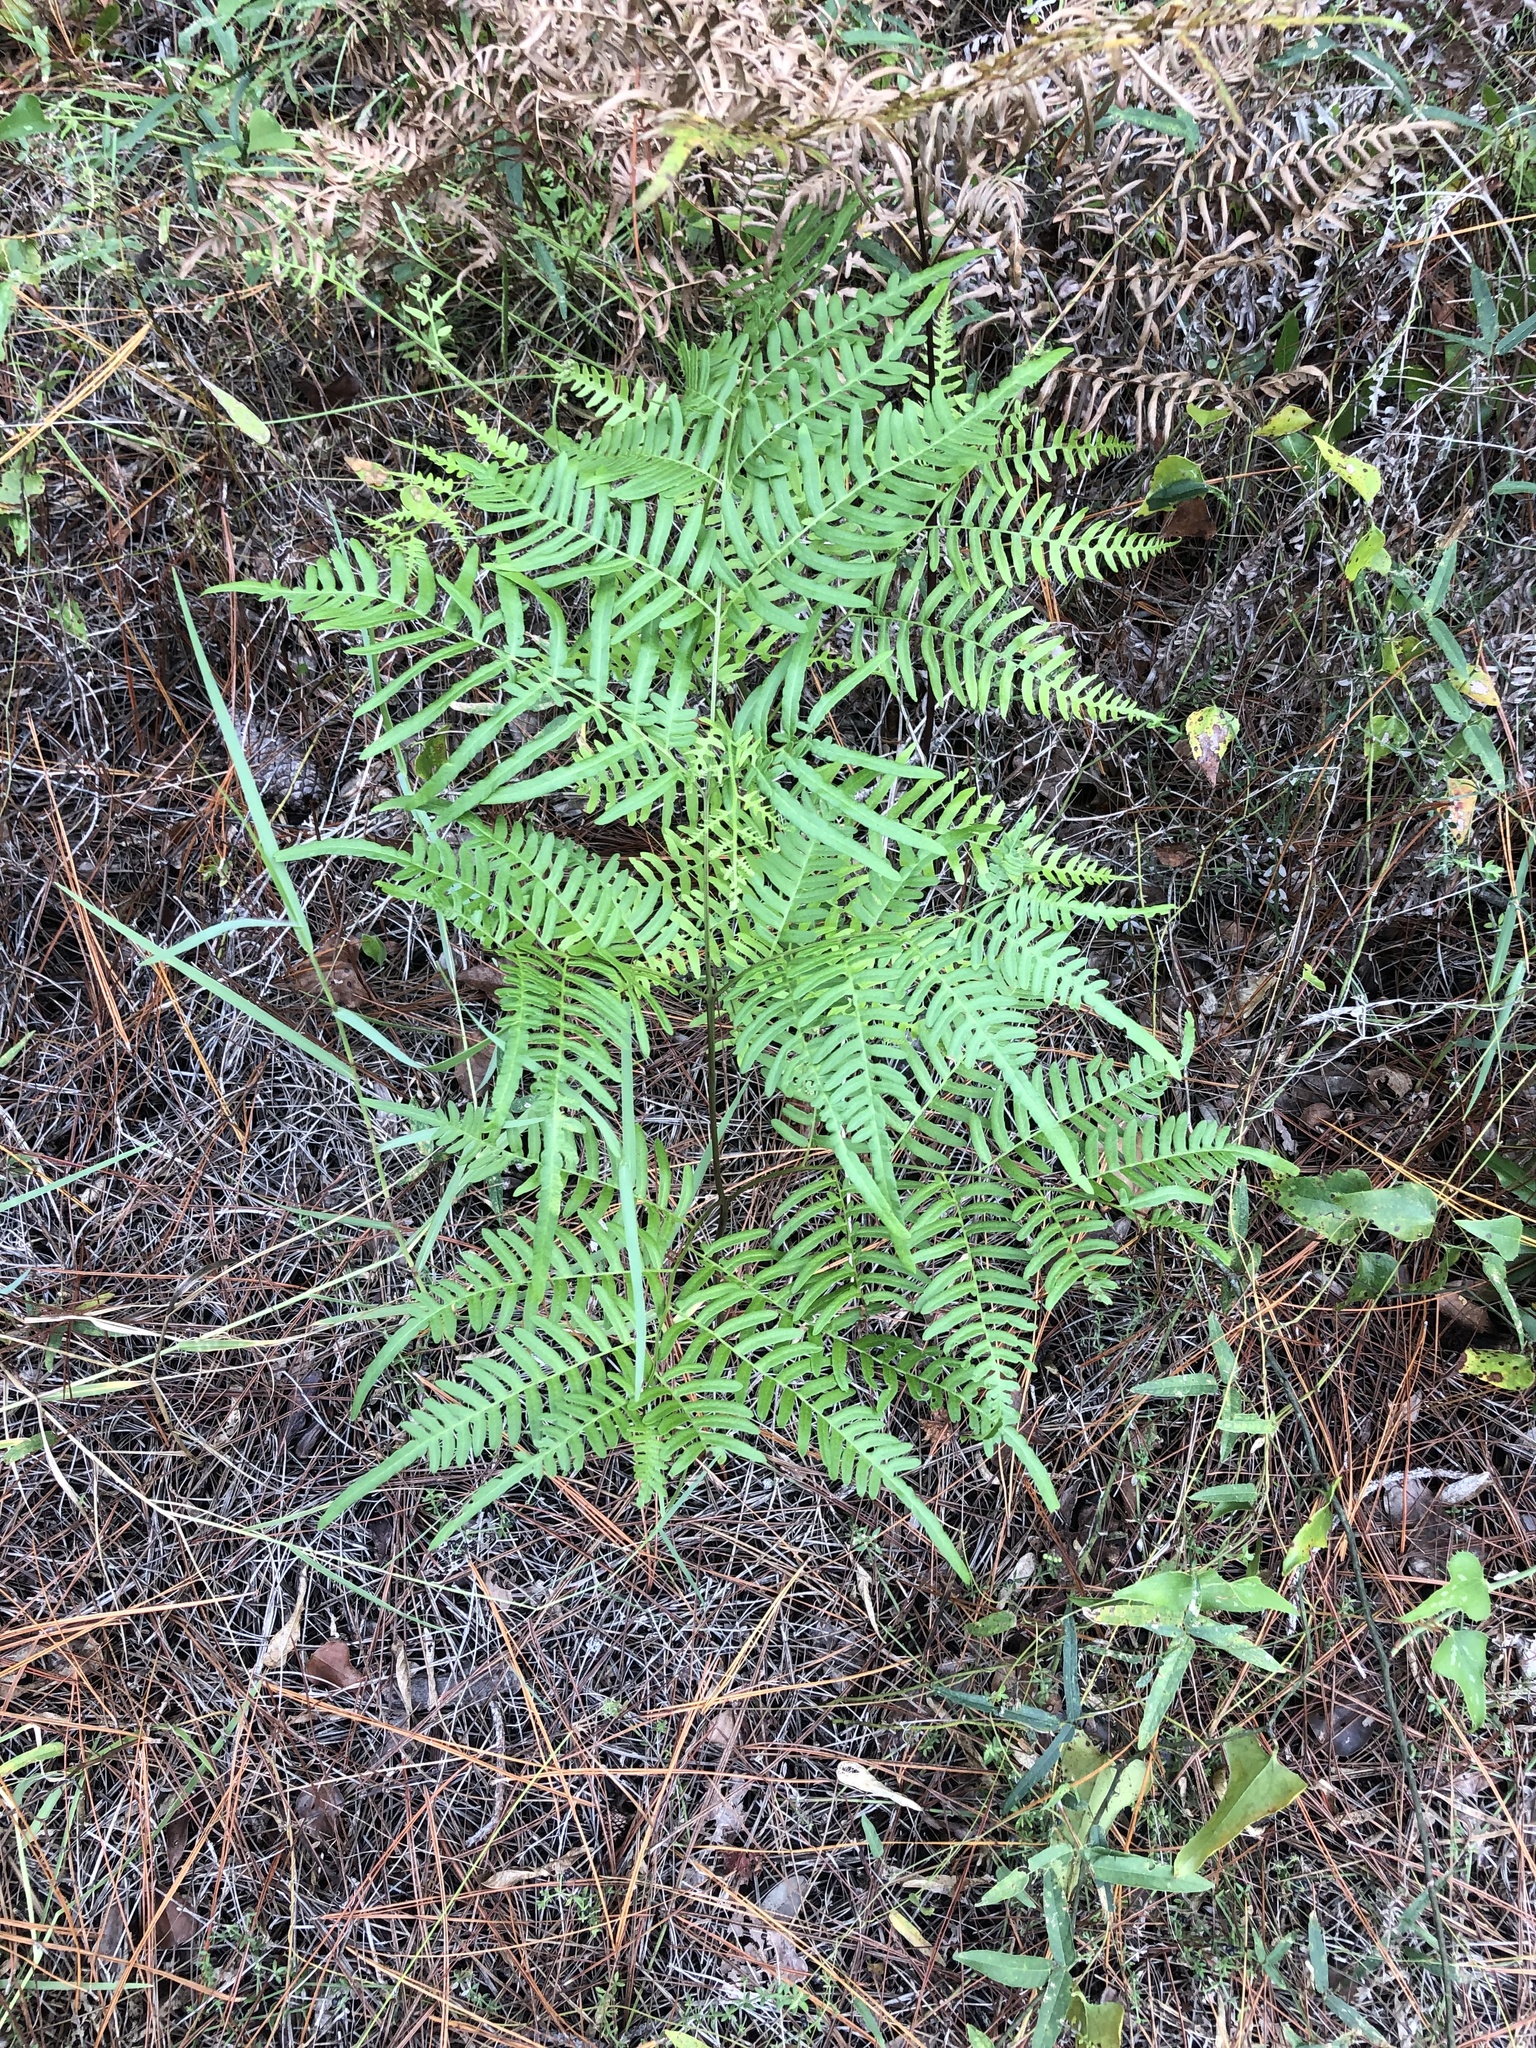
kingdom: Plantae
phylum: Tracheophyta
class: Polypodiopsida
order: Polypodiales
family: Dennstaedtiaceae
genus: Pteridium
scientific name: Pteridium
